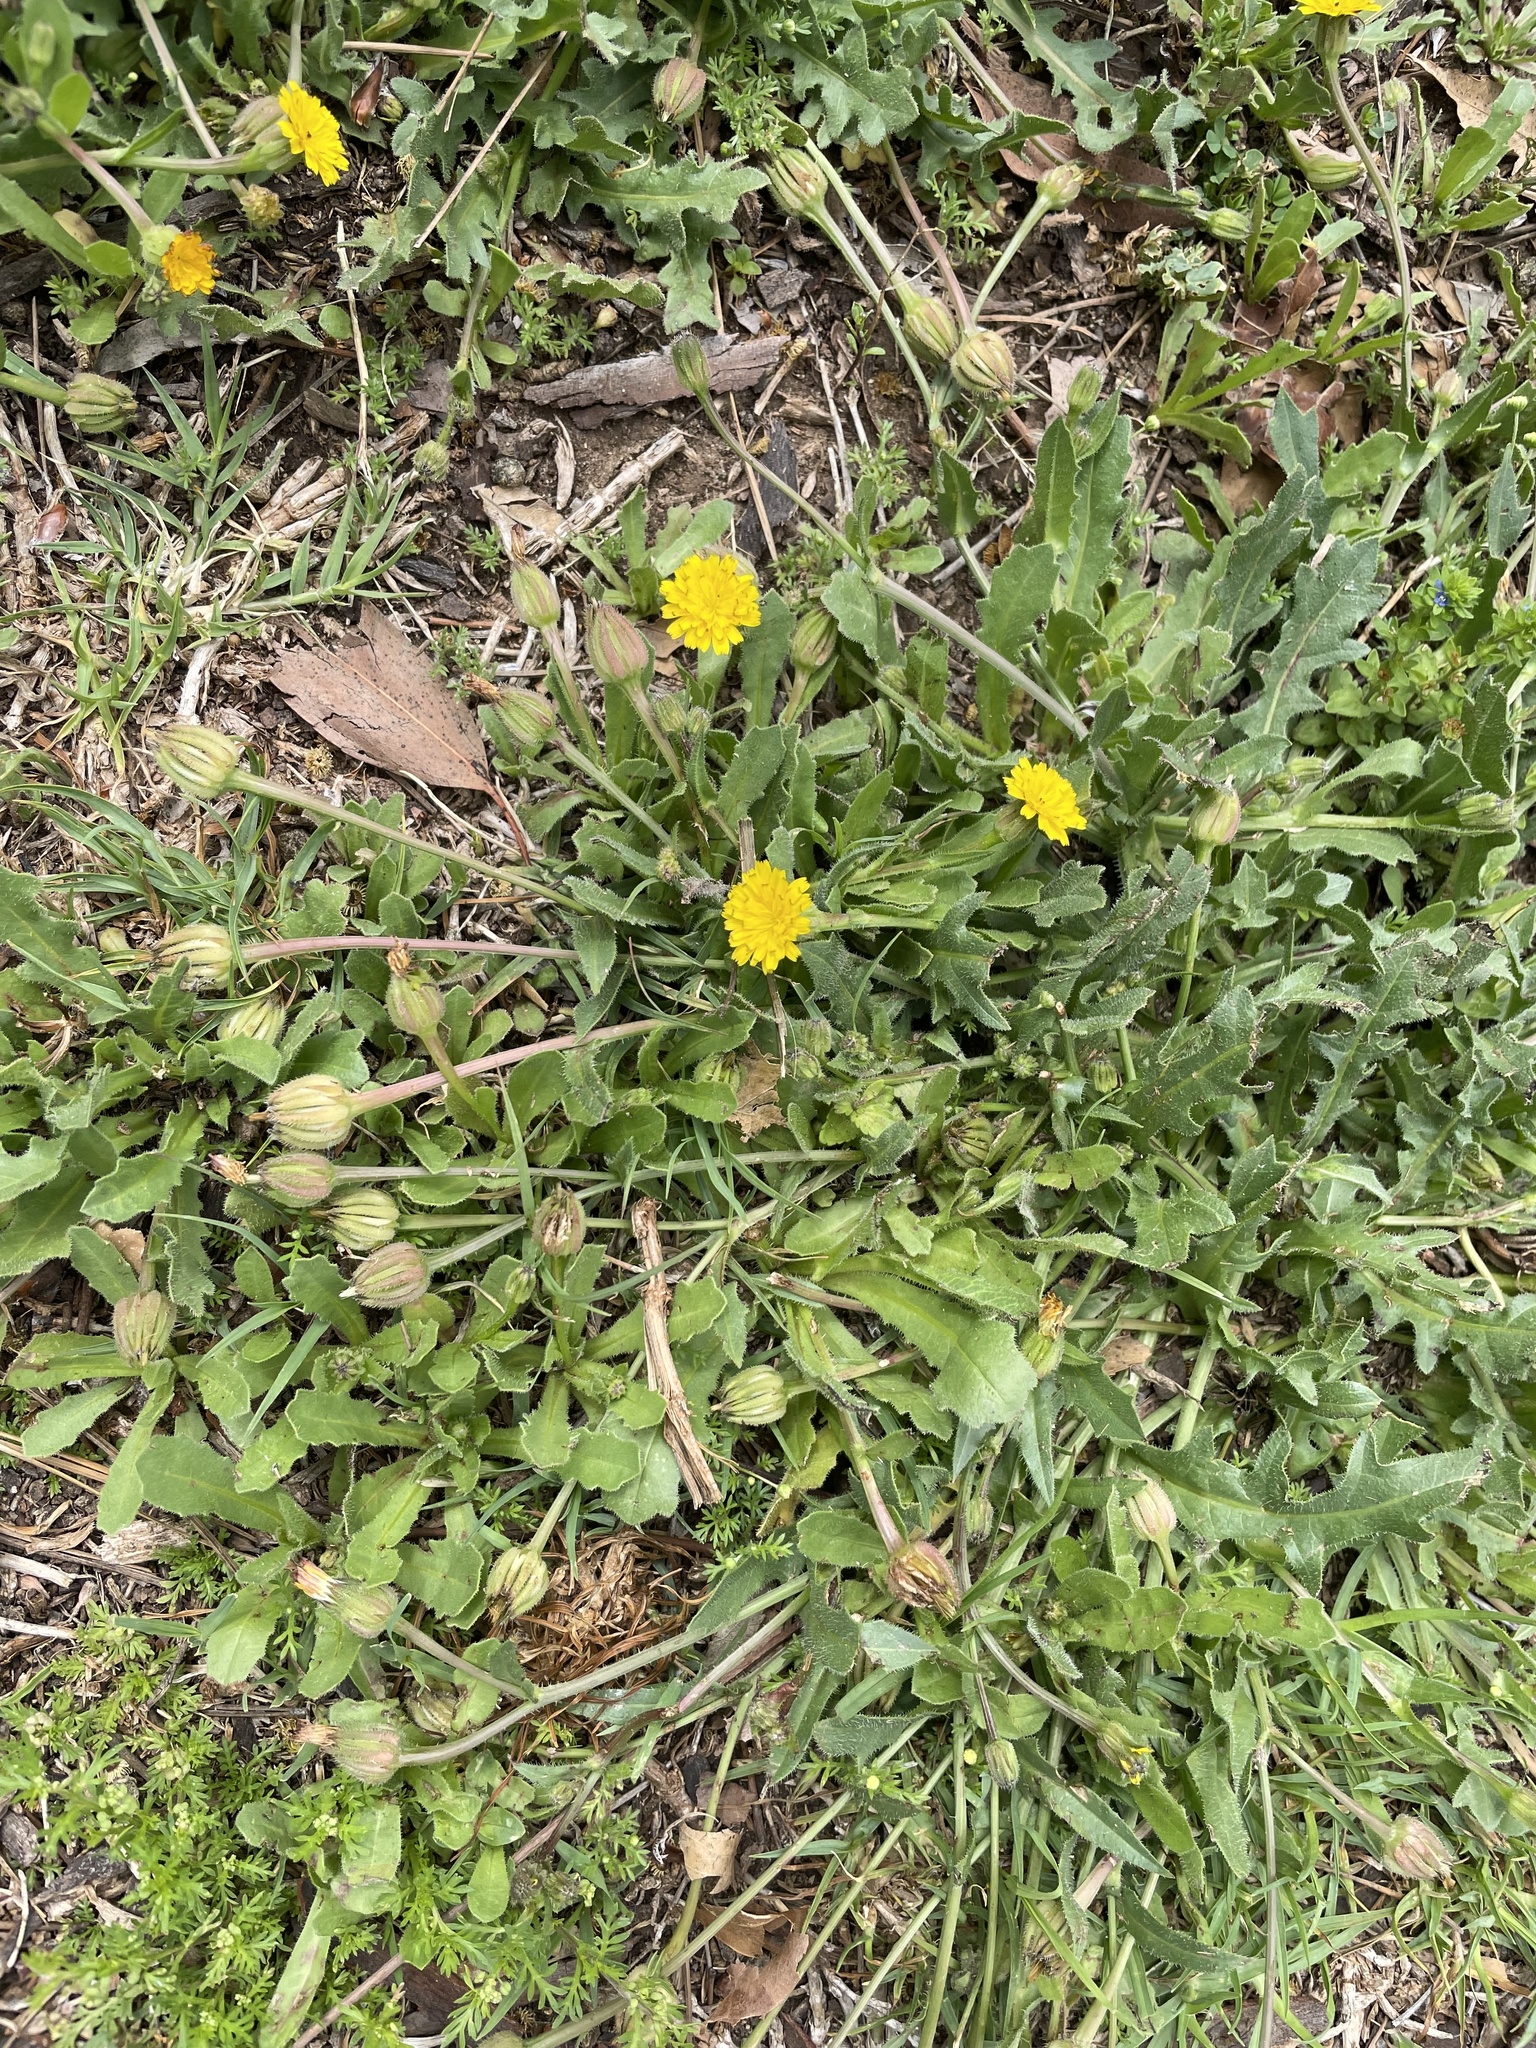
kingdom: Plantae
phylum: Tracheophyta
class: Magnoliopsida
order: Asterales
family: Asteraceae
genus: Hedypnois
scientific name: Hedypnois rhagadioloides
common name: Cretan weed
